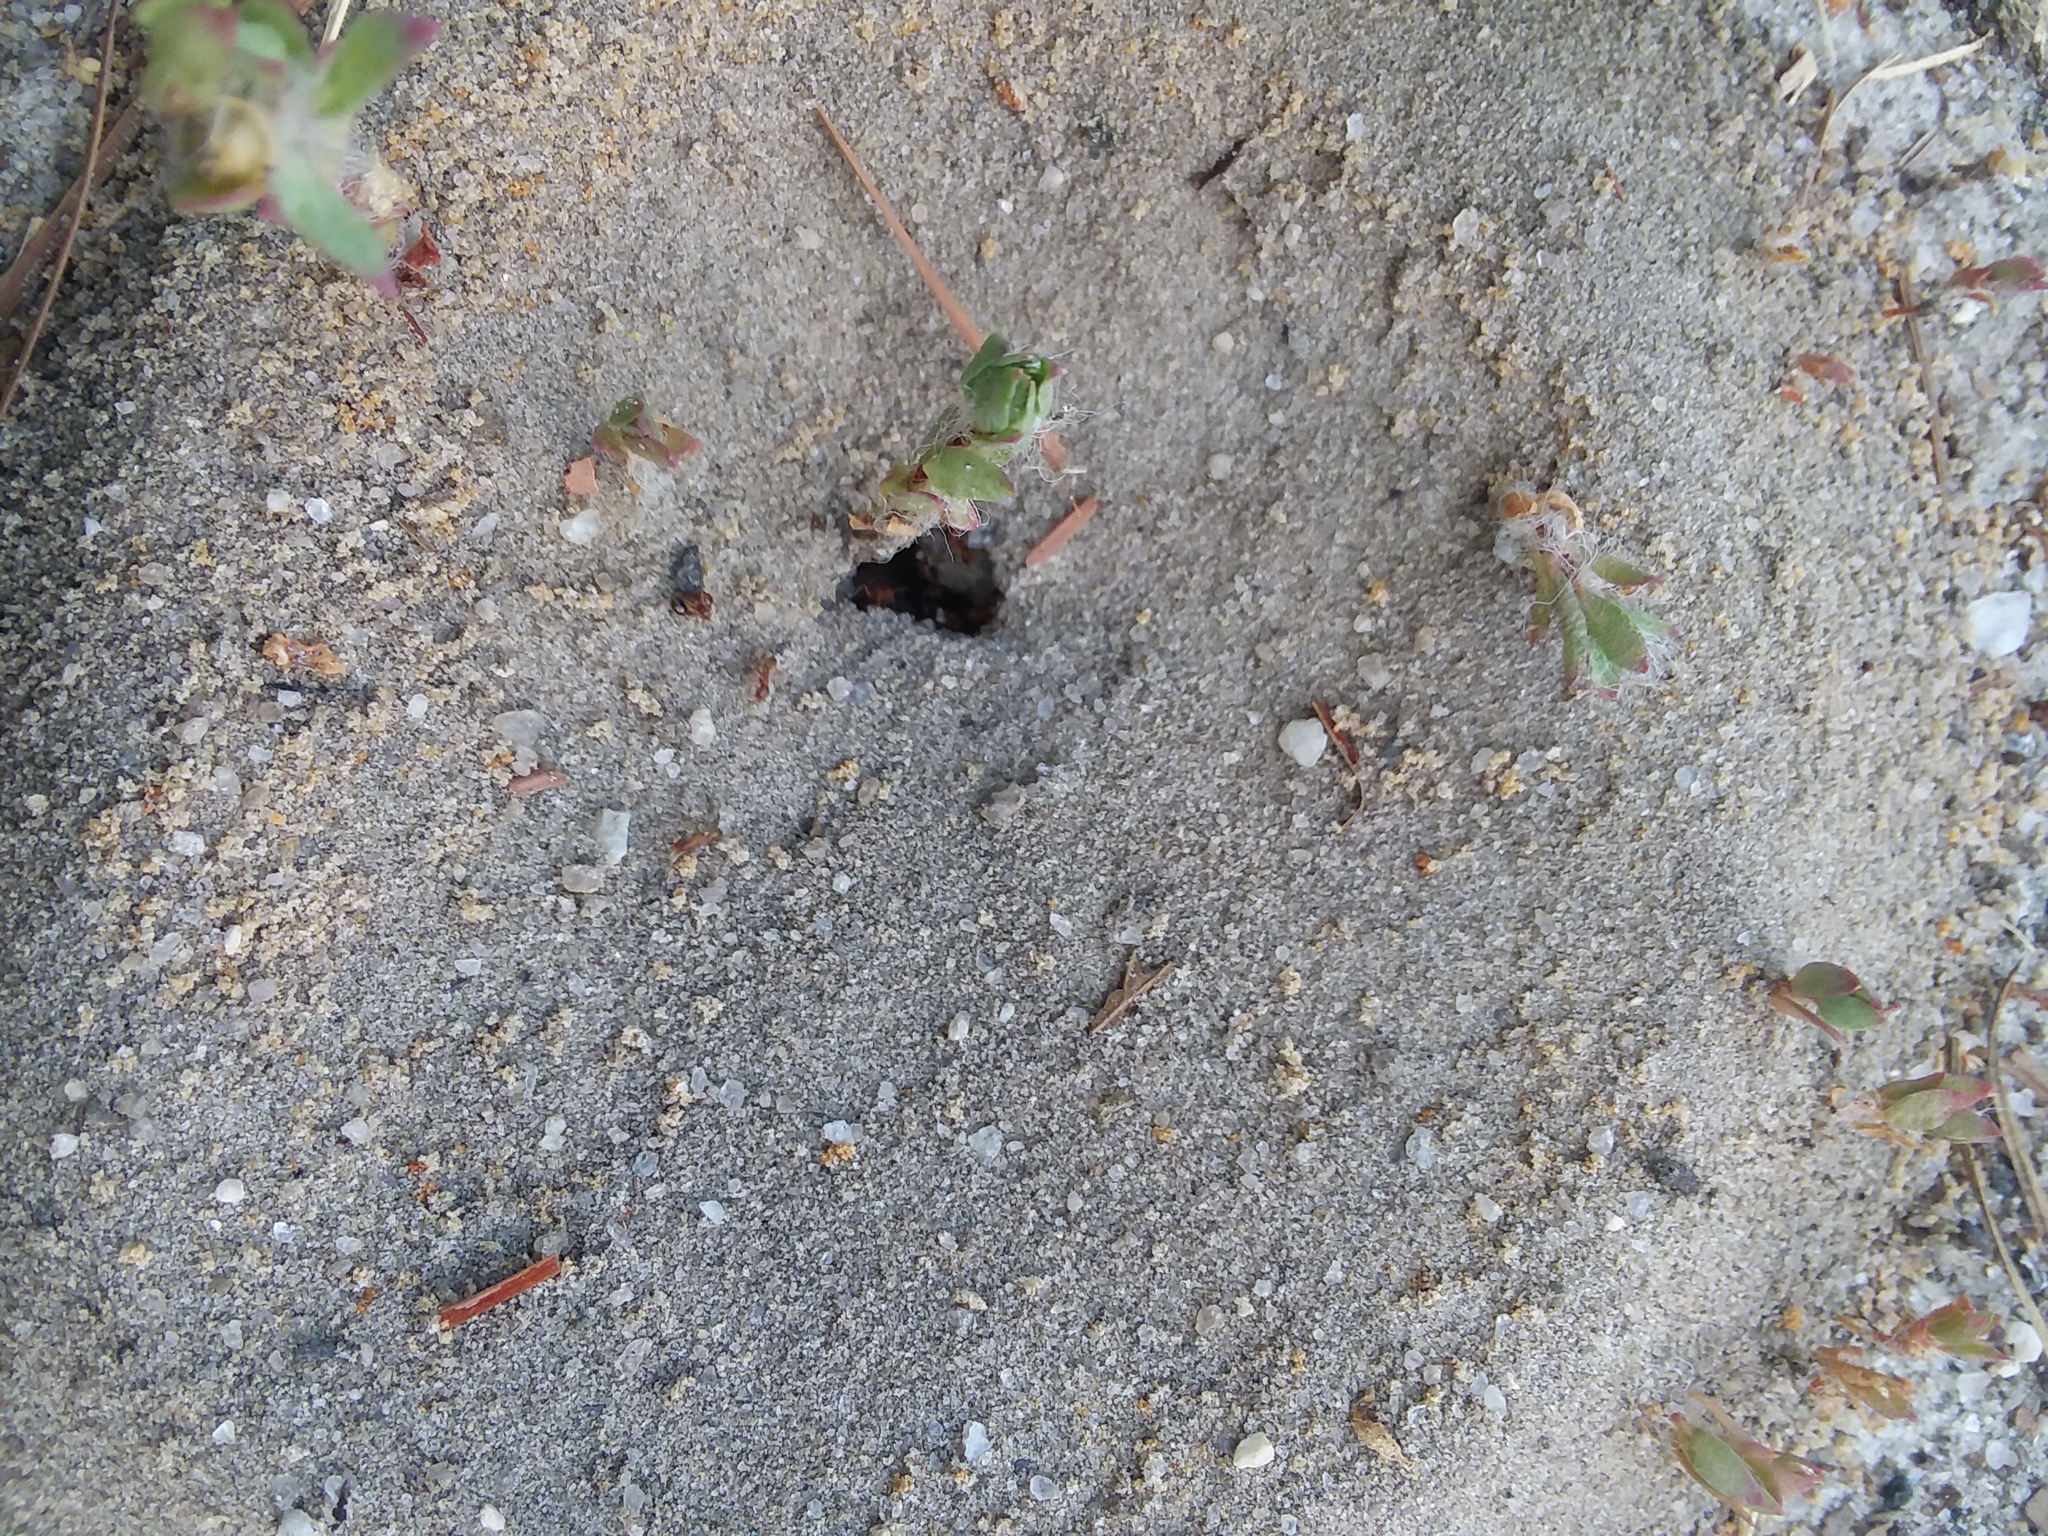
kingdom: Animalia
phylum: Arthropoda
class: Insecta
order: Hymenoptera
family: Formicidae
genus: Dorymyrmex
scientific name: Dorymyrmex bureni
